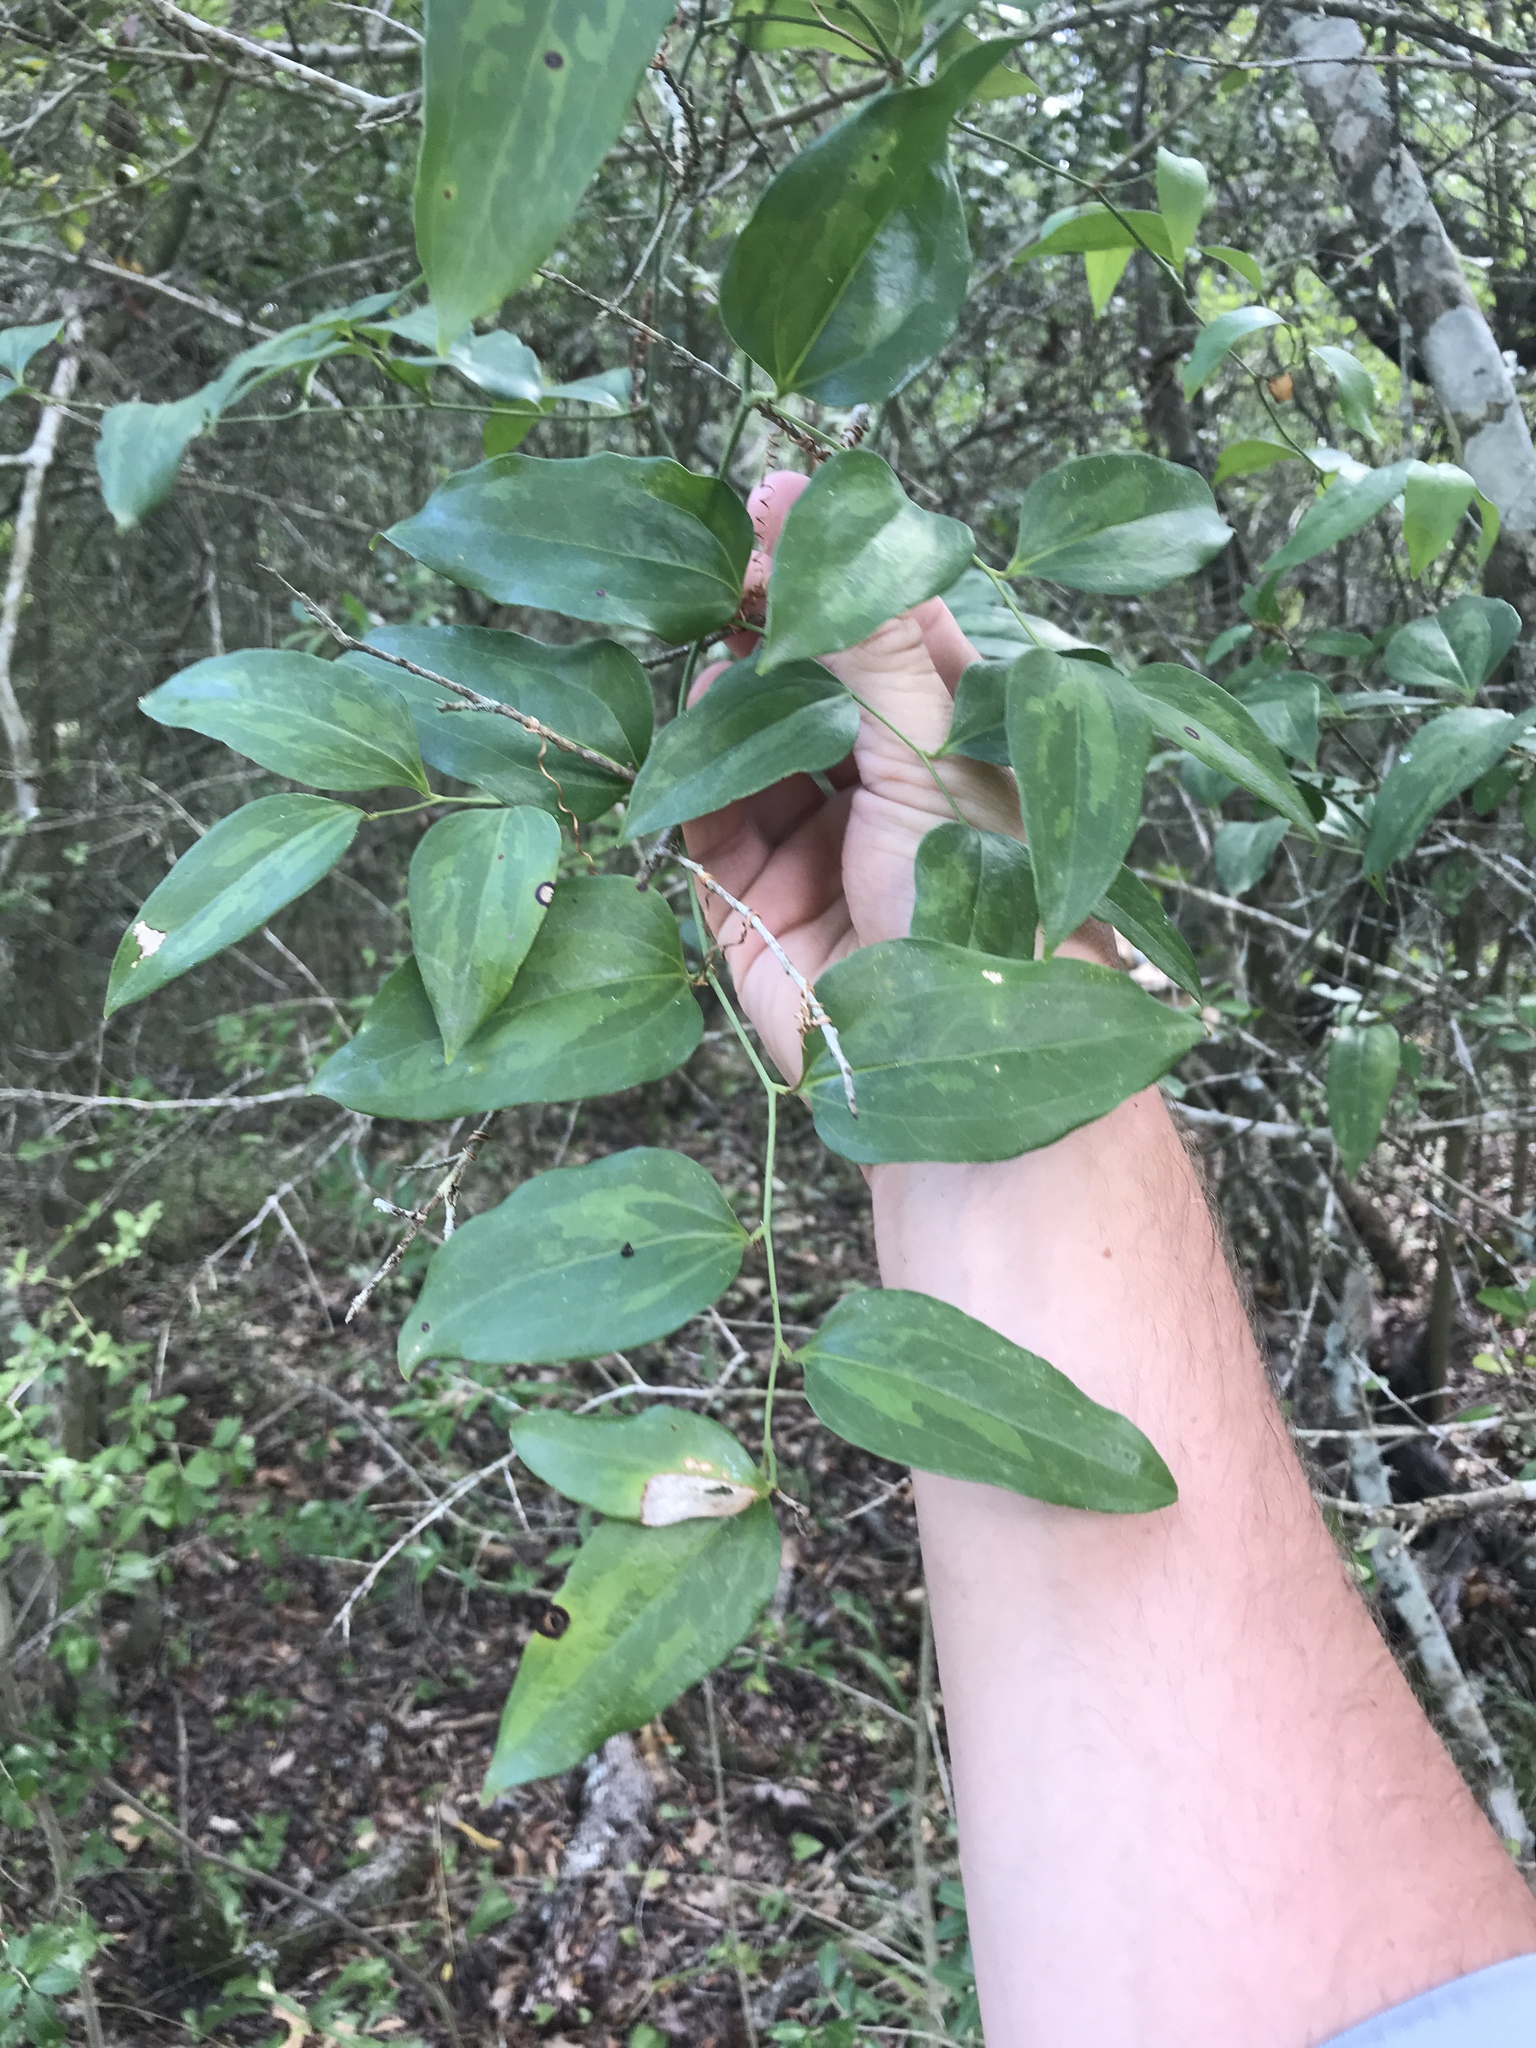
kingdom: Plantae
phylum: Tracheophyta
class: Liliopsida
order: Liliales
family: Smilacaceae
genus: Smilax
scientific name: Smilax maritima
